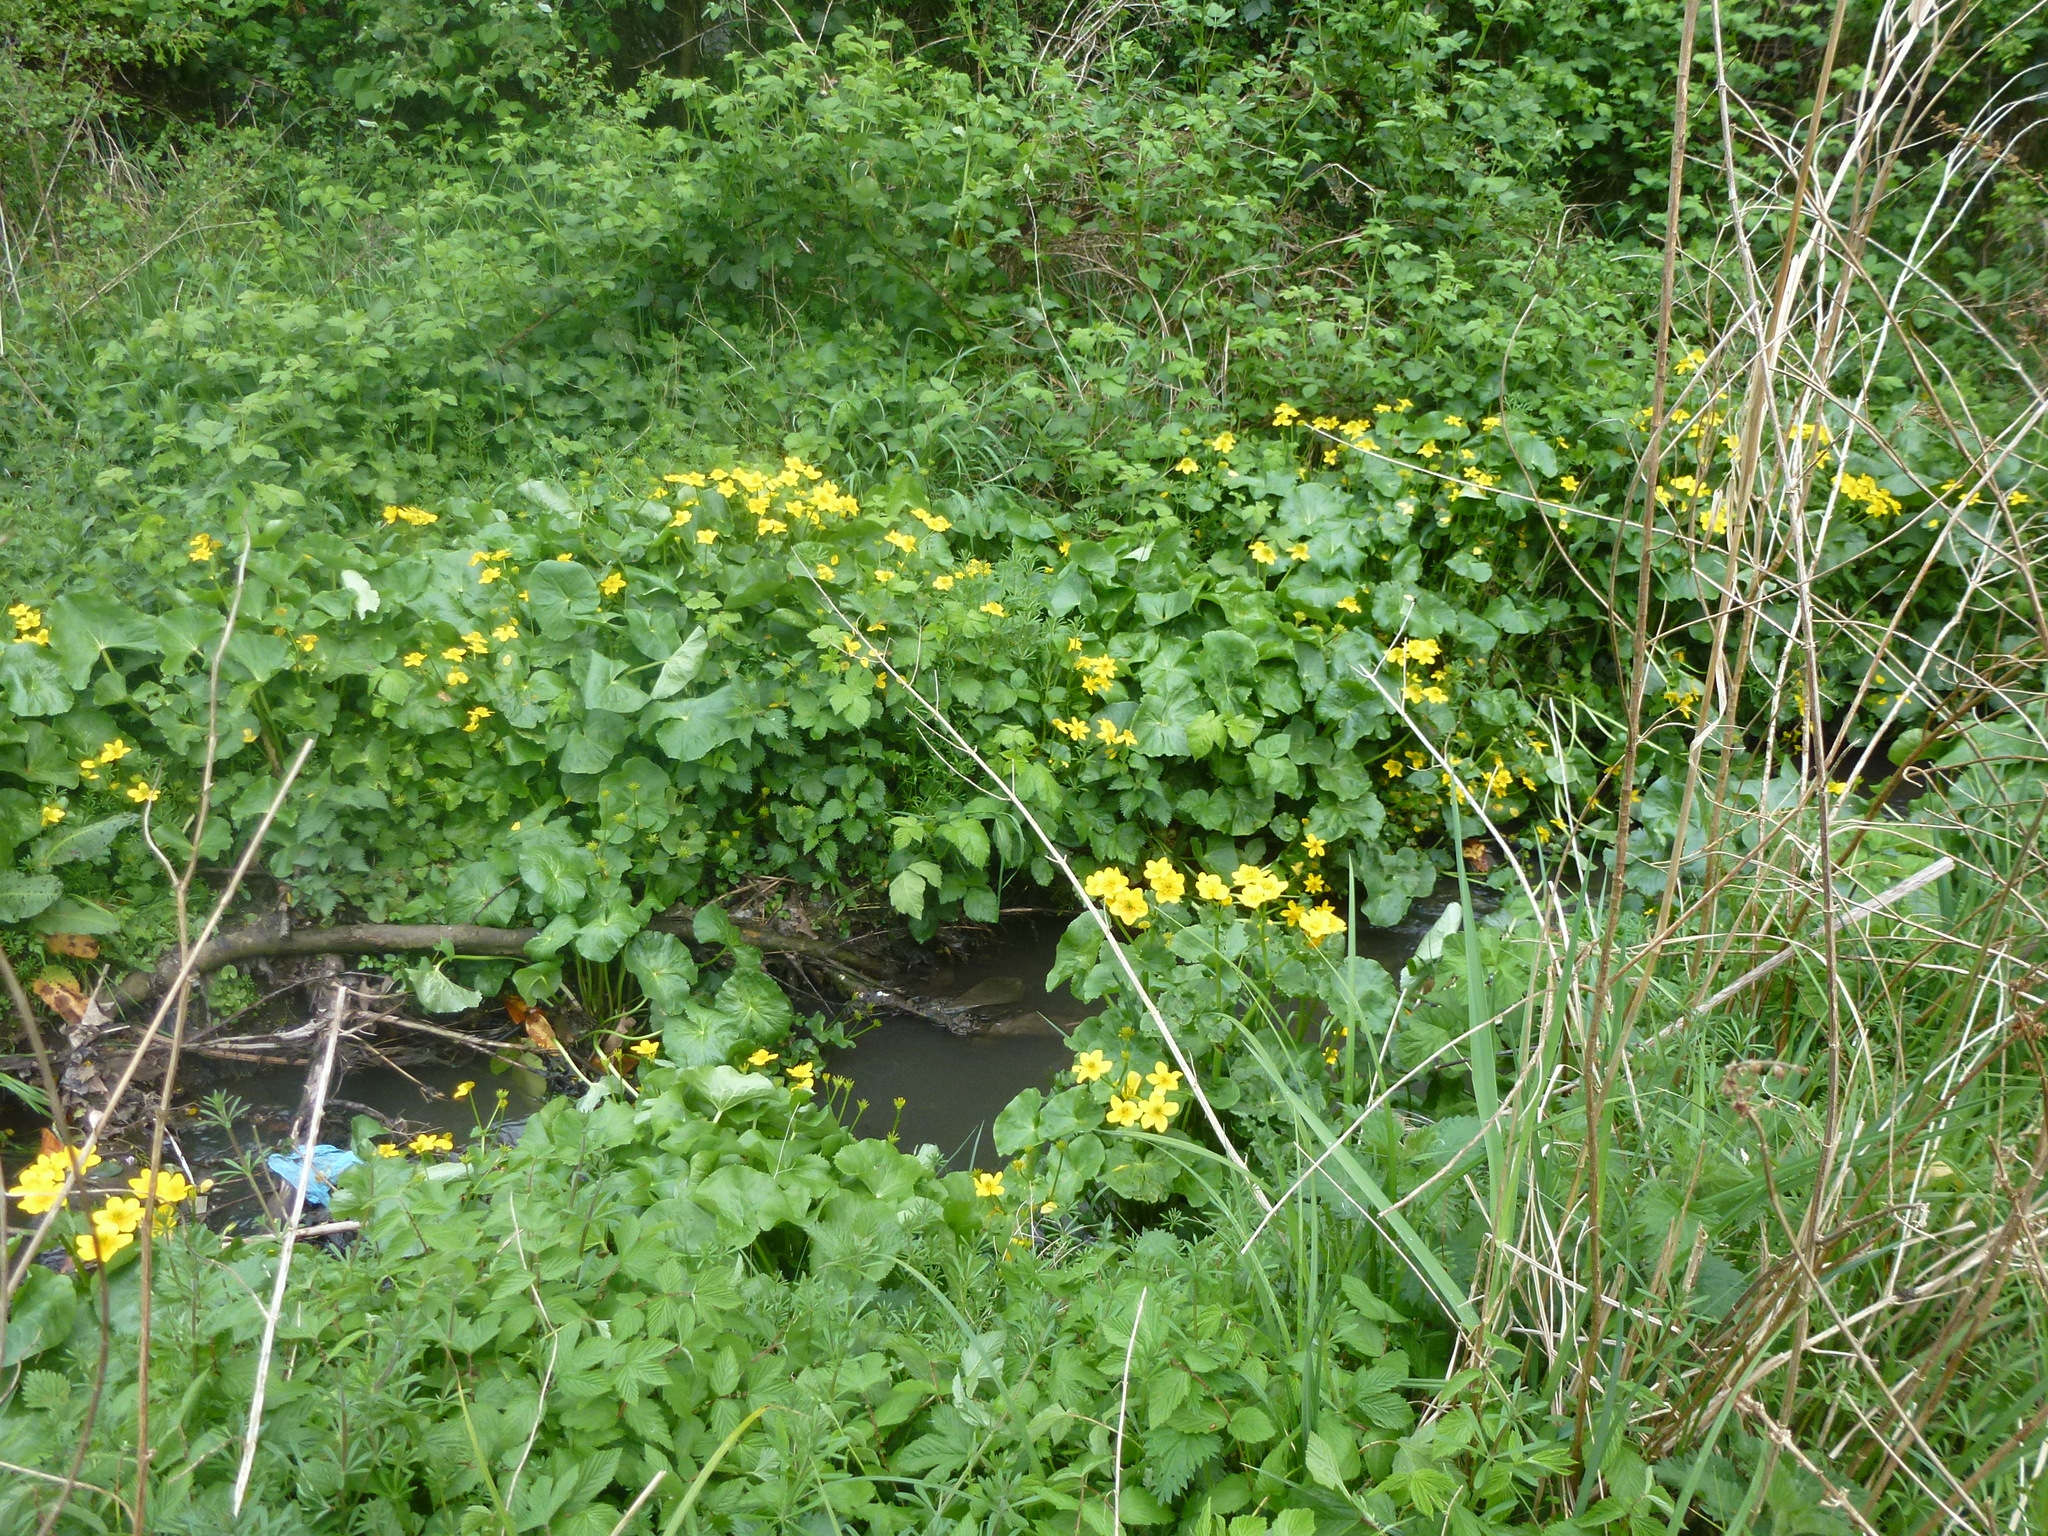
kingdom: Plantae
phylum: Tracheophyta
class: Magnoliopsida
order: Ranunculales
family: Ranunculaceae
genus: Caltha
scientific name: Caltha palustris
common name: Marsh marigold
